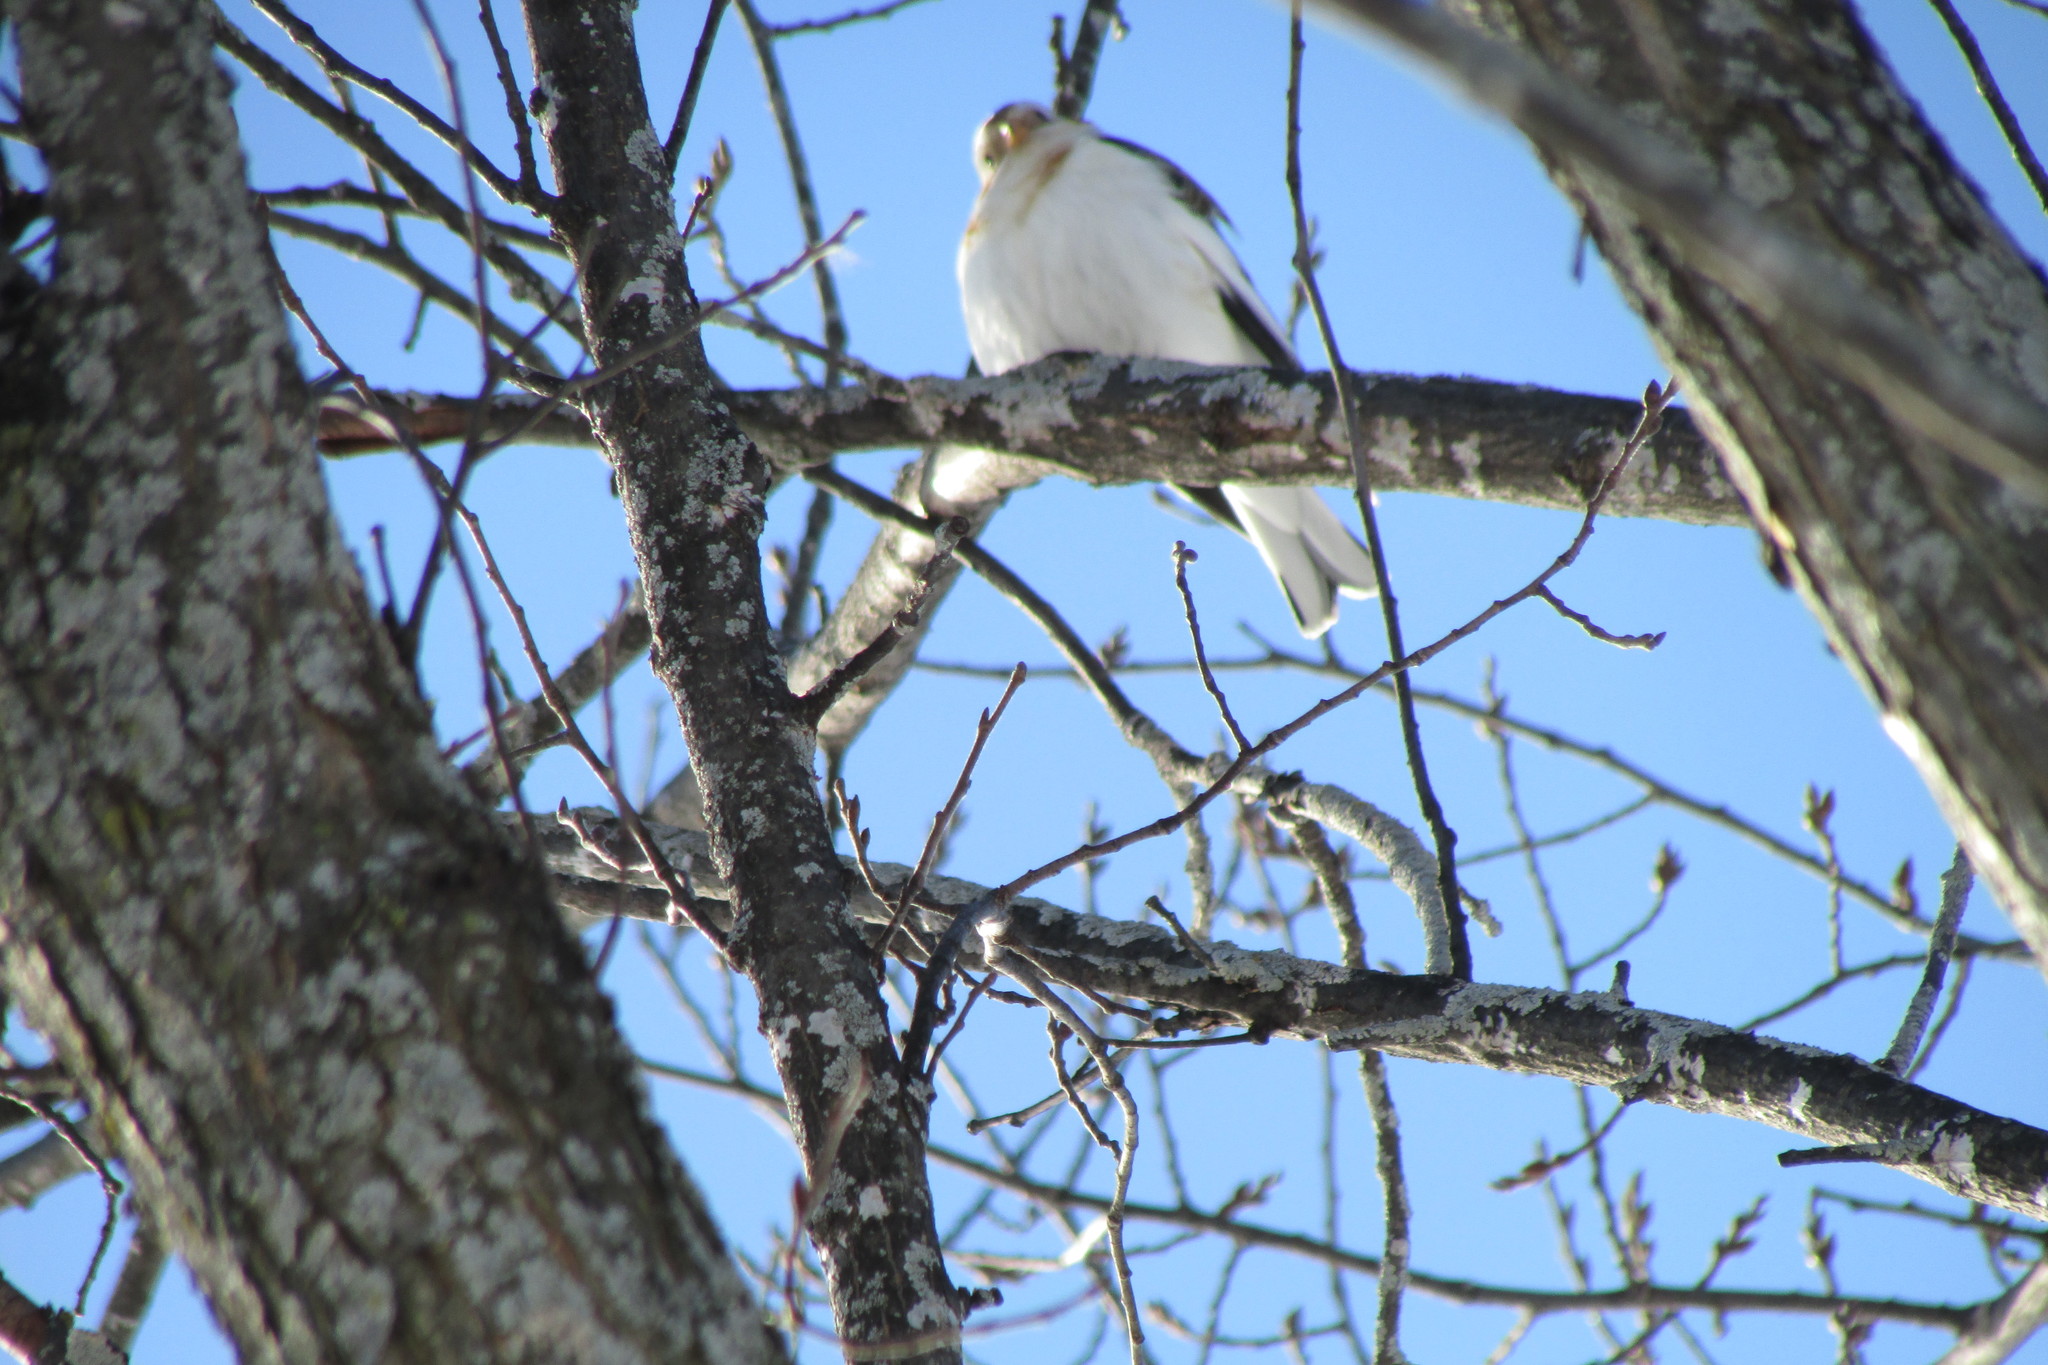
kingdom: Animalia
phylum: Chordata
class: Aves
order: Passeriformes
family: Calcariidae
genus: Plectrophenax
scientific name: Plectrophenax nivalis
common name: Snow bunting
